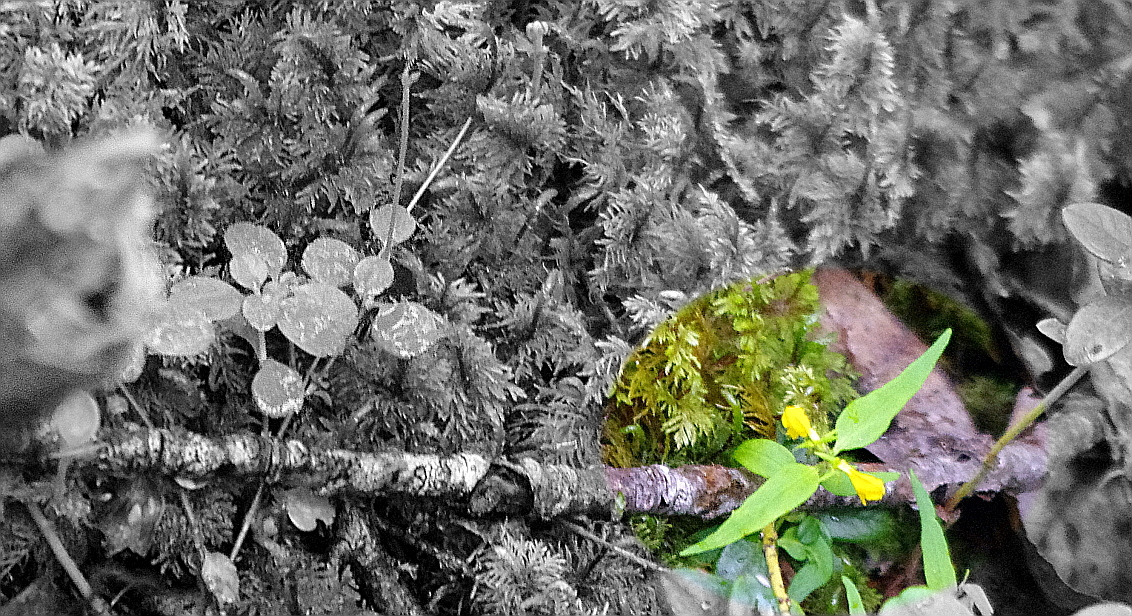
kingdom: Plantae
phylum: Tracheophyta
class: Magnoliopsida
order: Lamiales
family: Orobanchaceae
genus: Melampyrum
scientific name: Melampyrum sylvaticum
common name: Small cow-wheat
